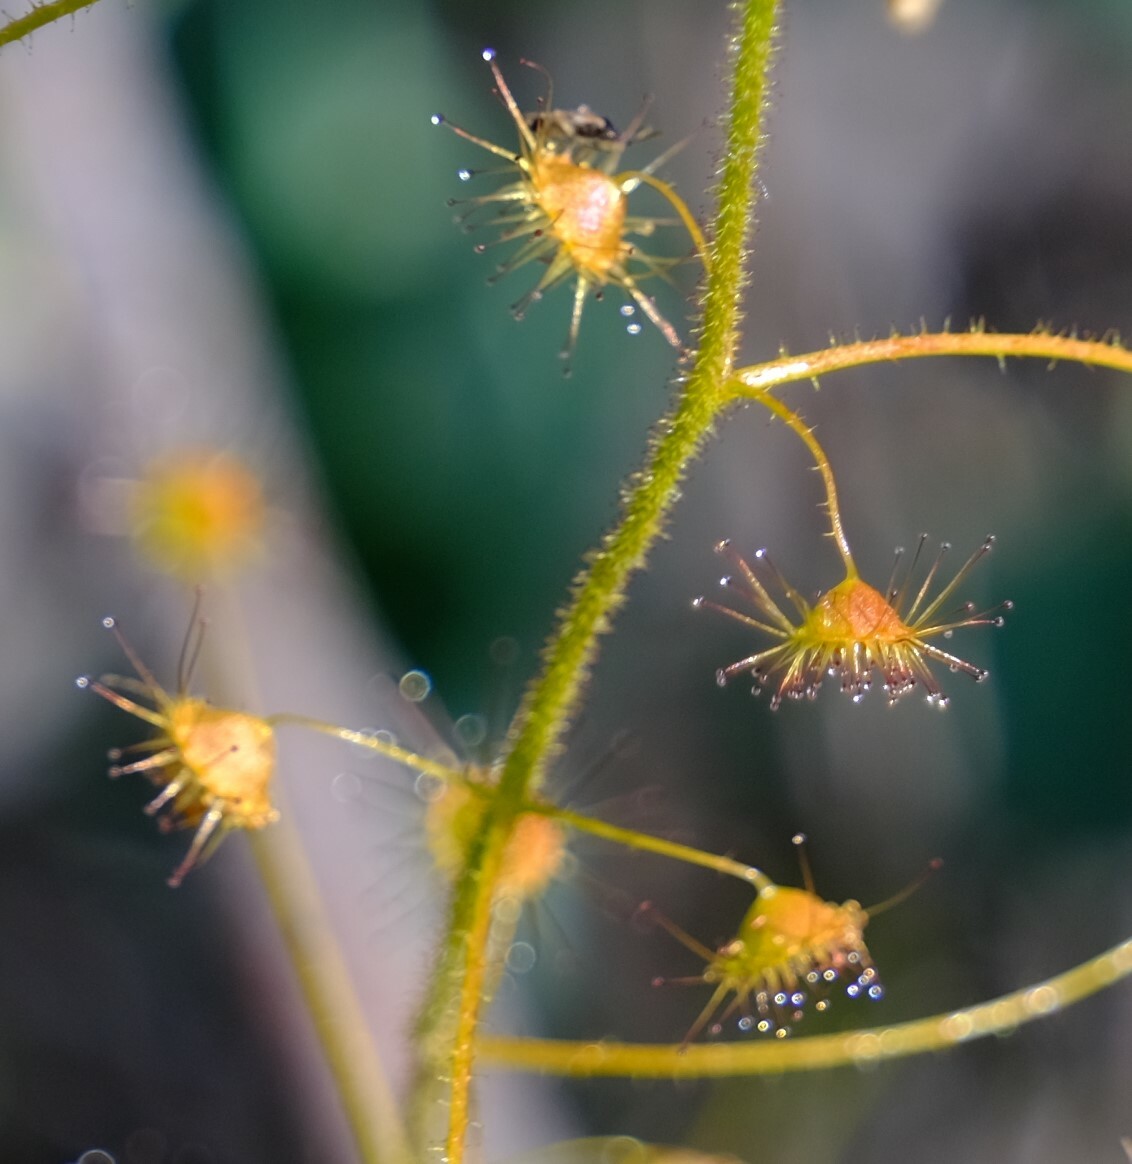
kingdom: Plantae
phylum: Tracheophyta
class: Magnoliopsida
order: Caryophyllales
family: Droseraceae
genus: Drosera
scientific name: Drosera macrantha
